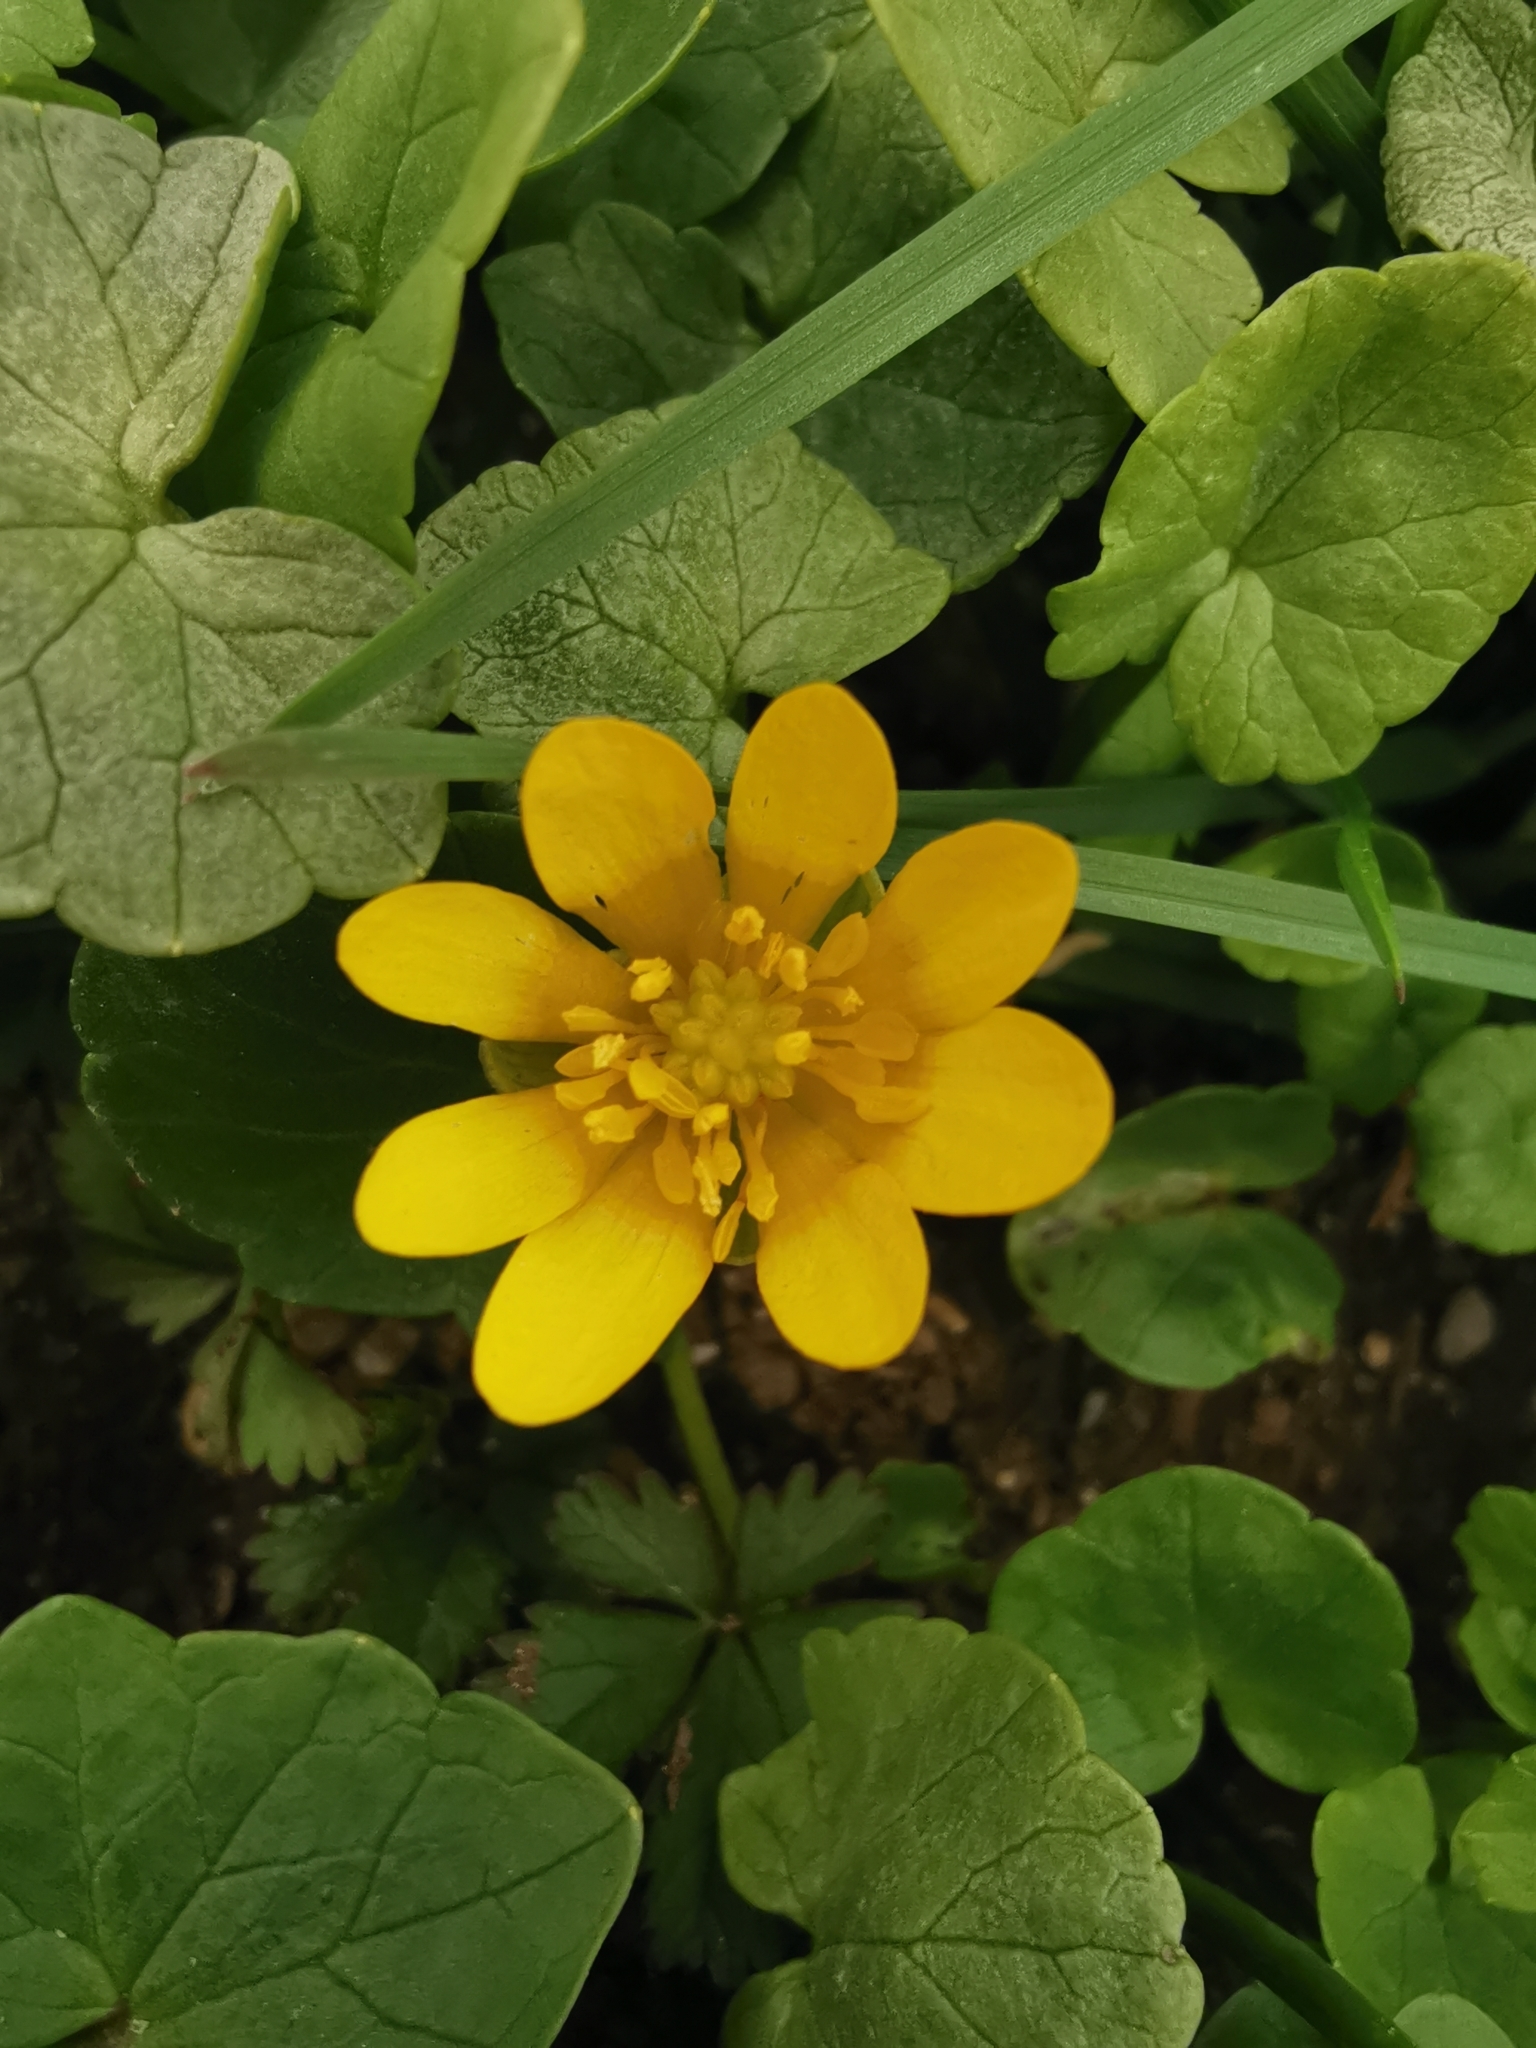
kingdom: Plantae
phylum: Tracheophyta
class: Magnoliopsida
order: Ranunculales
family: Ranunculaceae
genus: Ficaria
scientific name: Ficaria verna
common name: Lesser celandine
